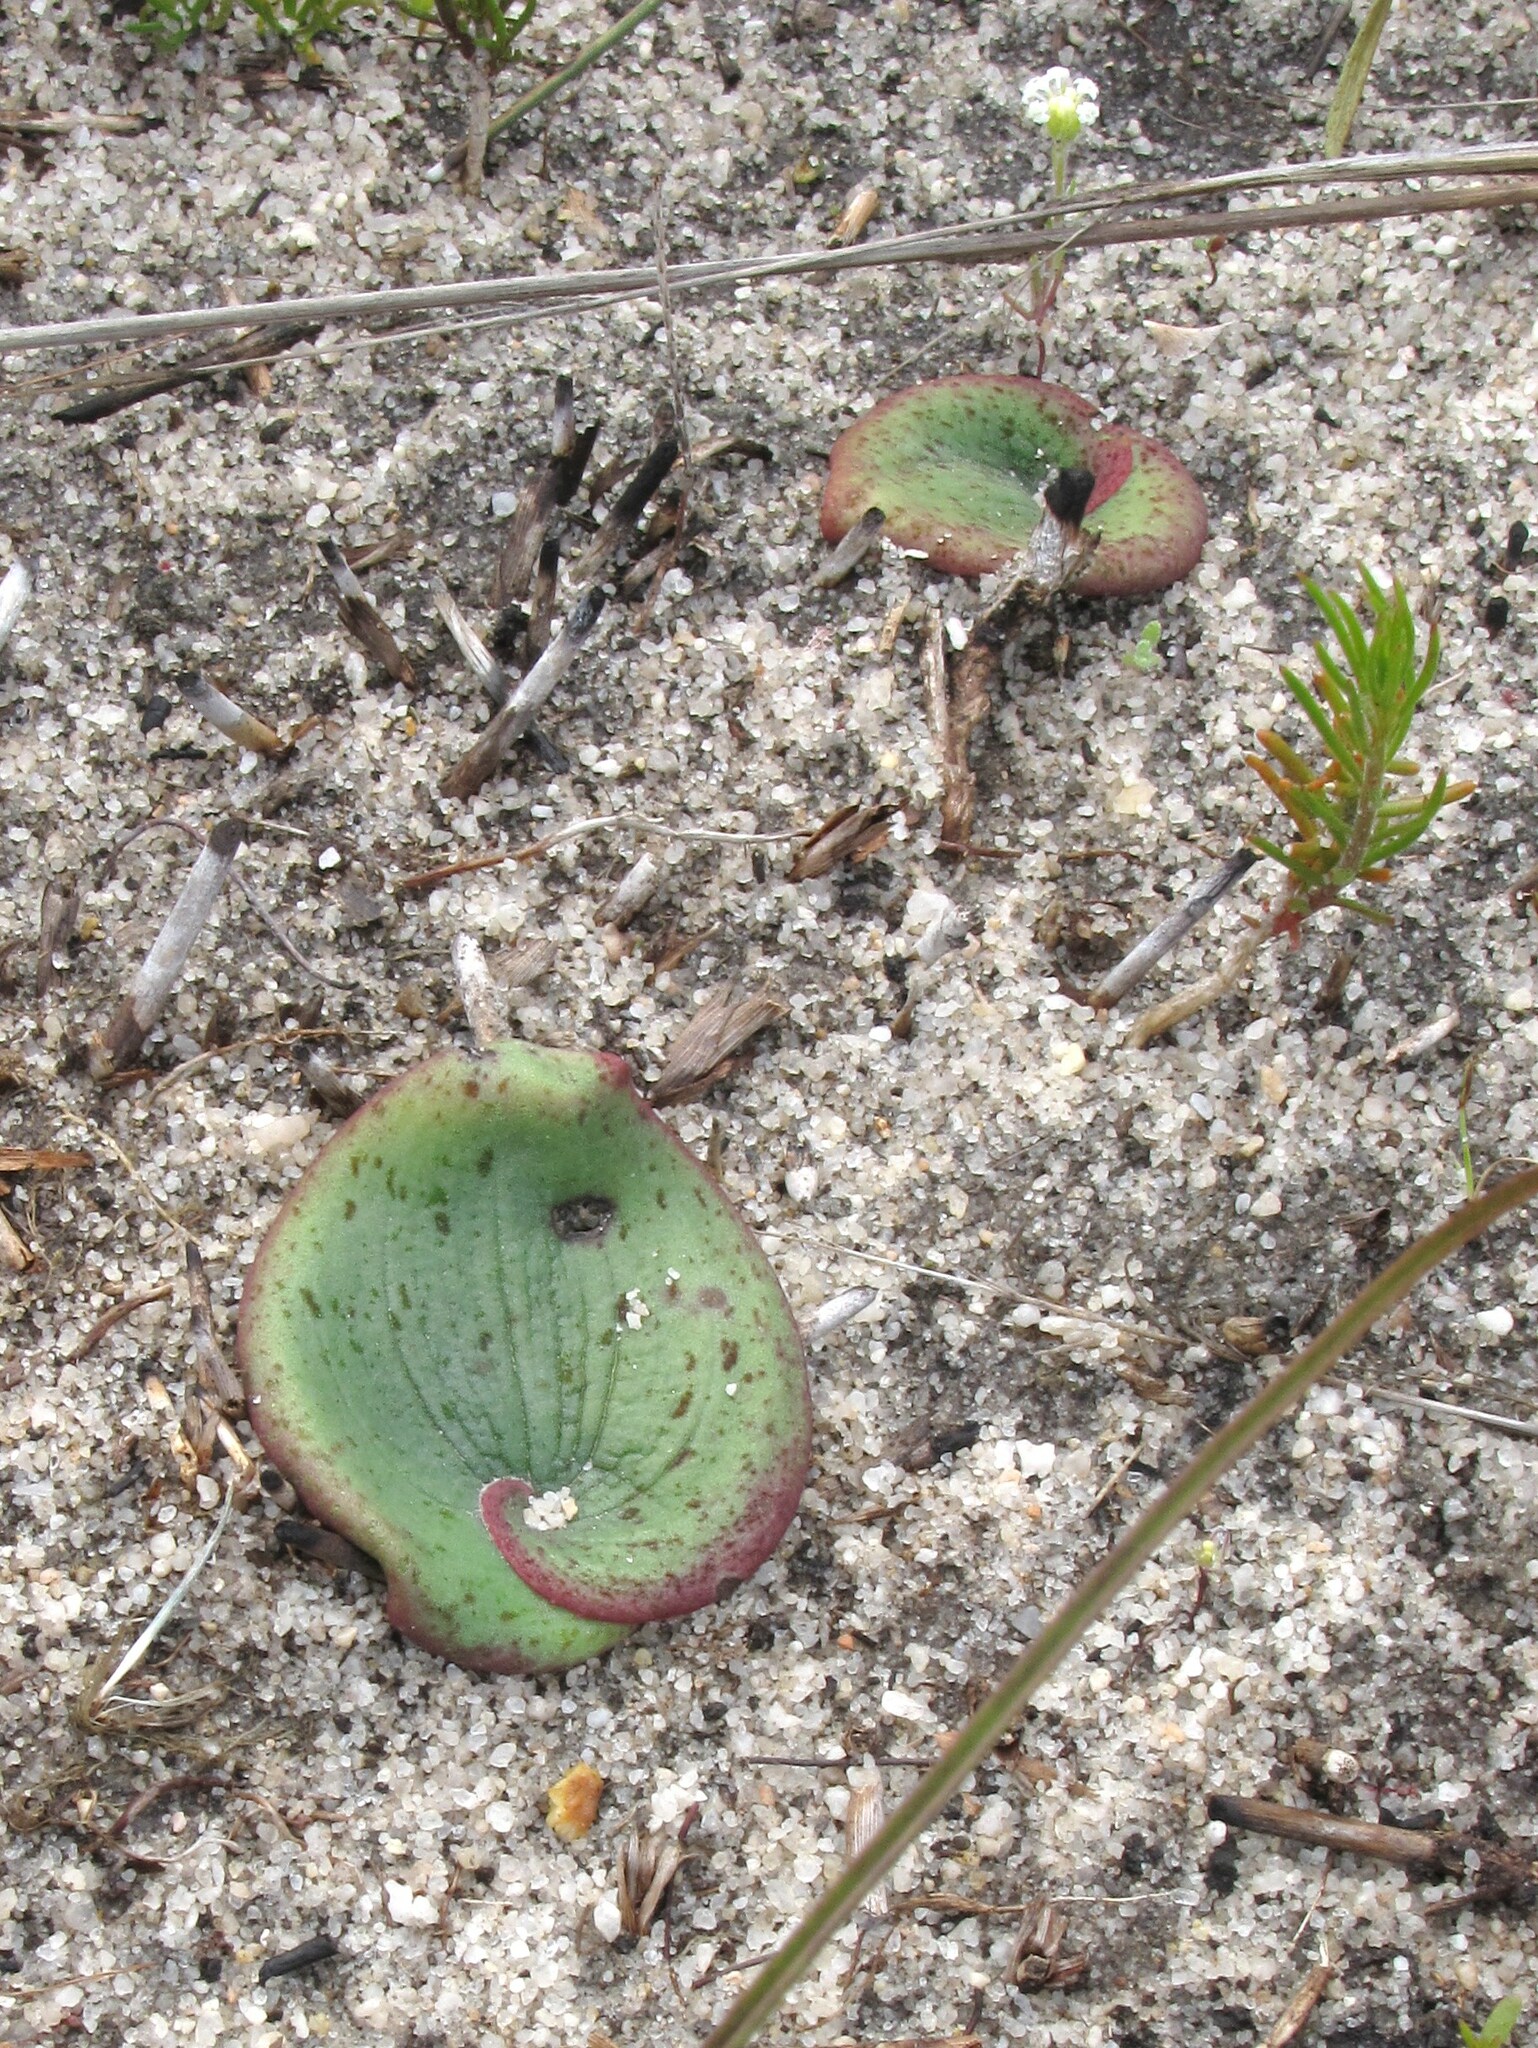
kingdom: Plantae
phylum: Tracheophyta
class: Liliopsida
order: Asparagales
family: Orchidaceae
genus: Pyrorchis
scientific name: Pyrorchis nigricans
